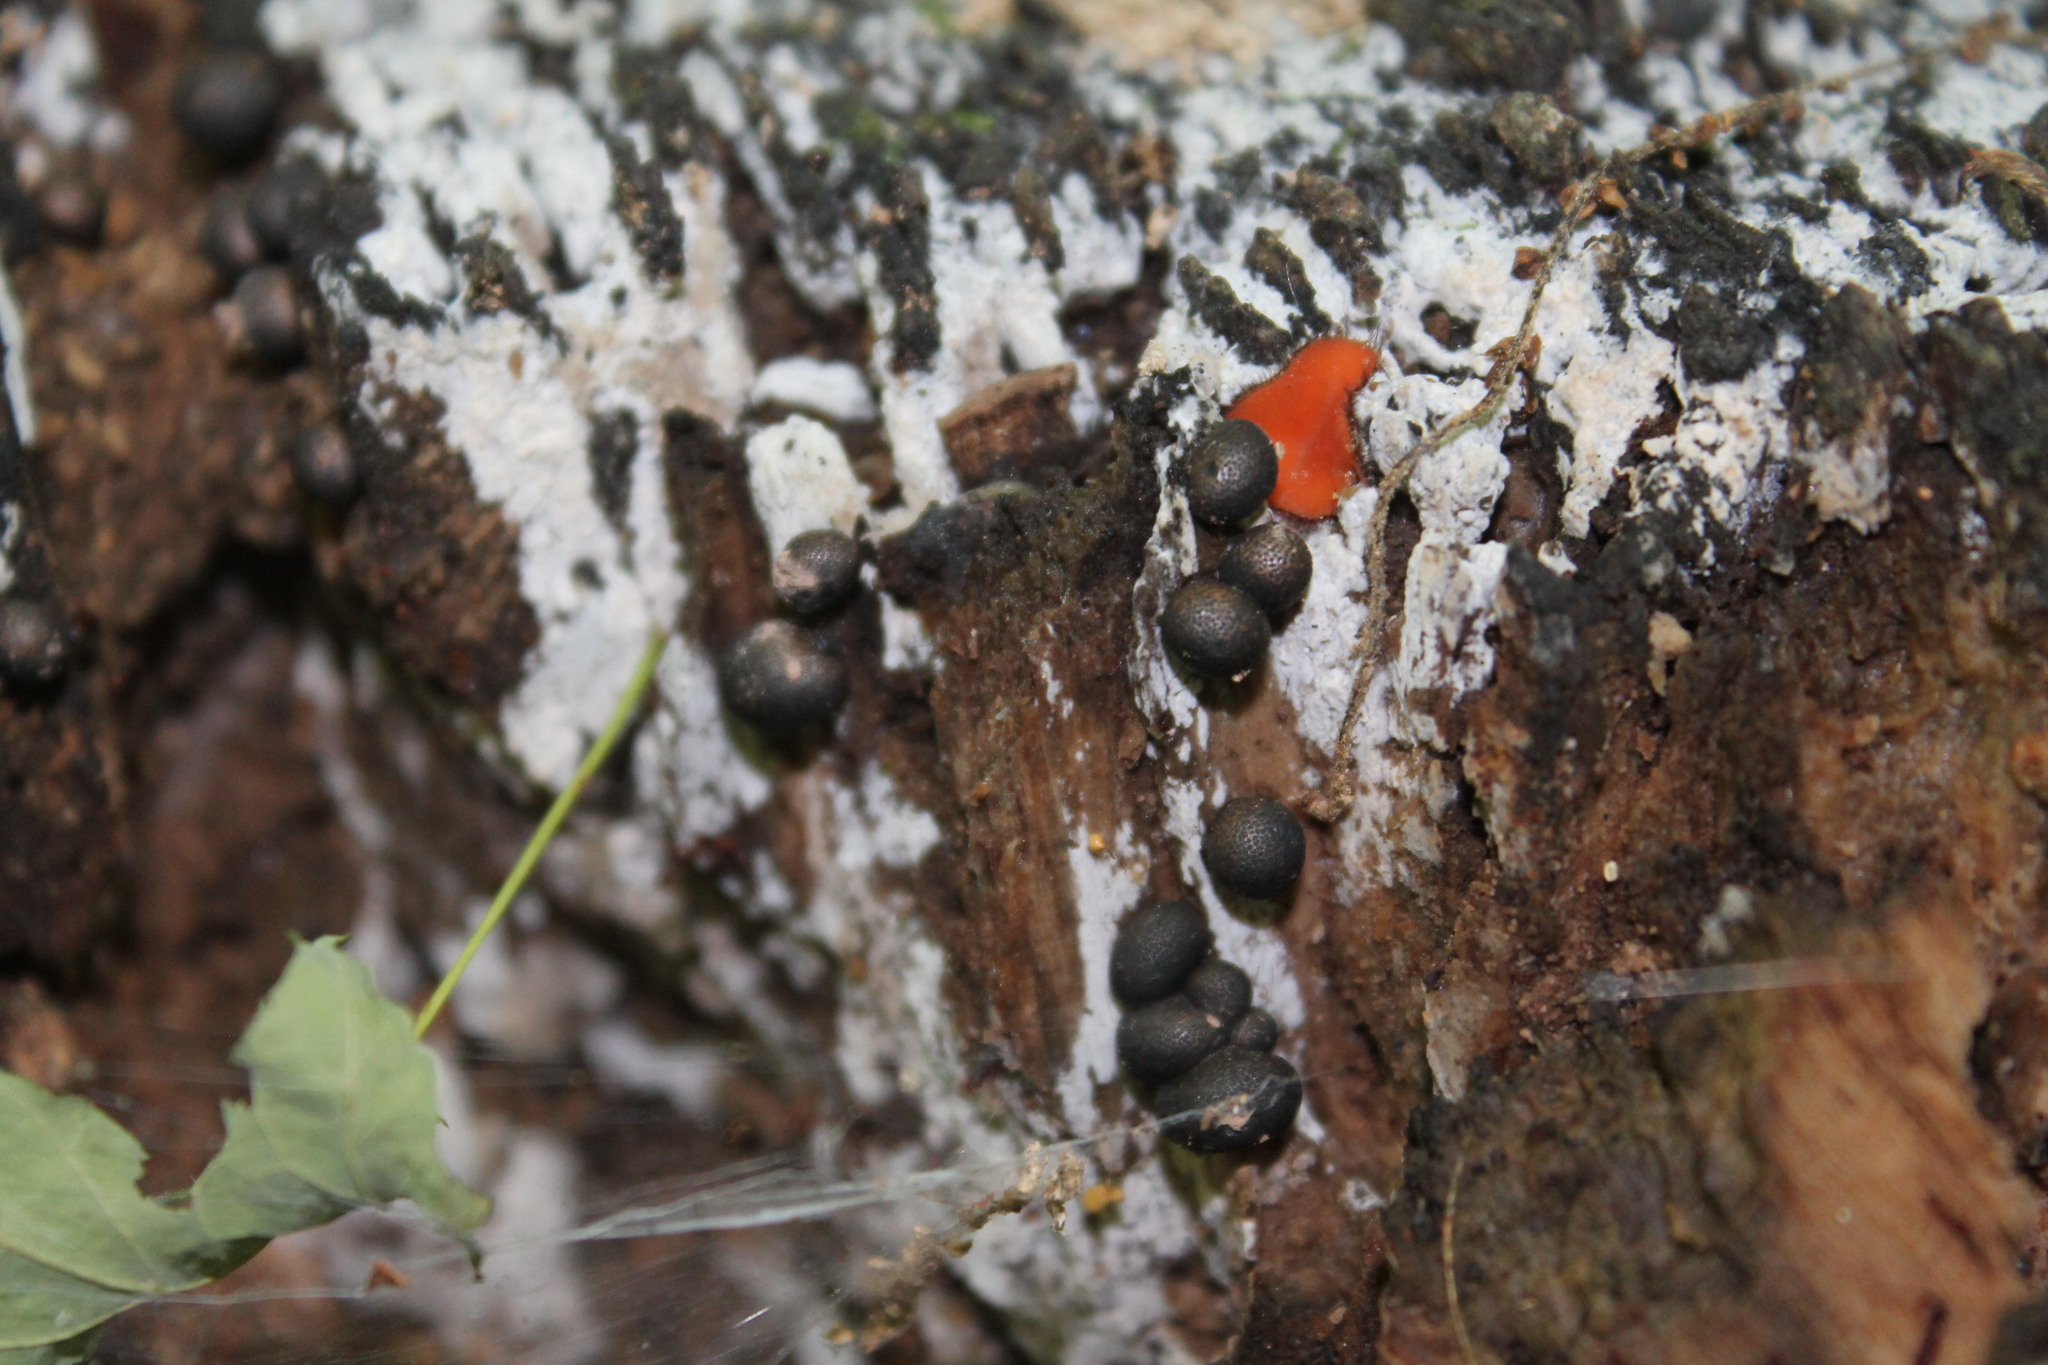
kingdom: Protozoa
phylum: Mycetozoa
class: Myxomycetes
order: Cribrariales
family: Tubiferaceae
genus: Lycogala
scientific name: Lycogala epidendrum
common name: Wolf's milk
